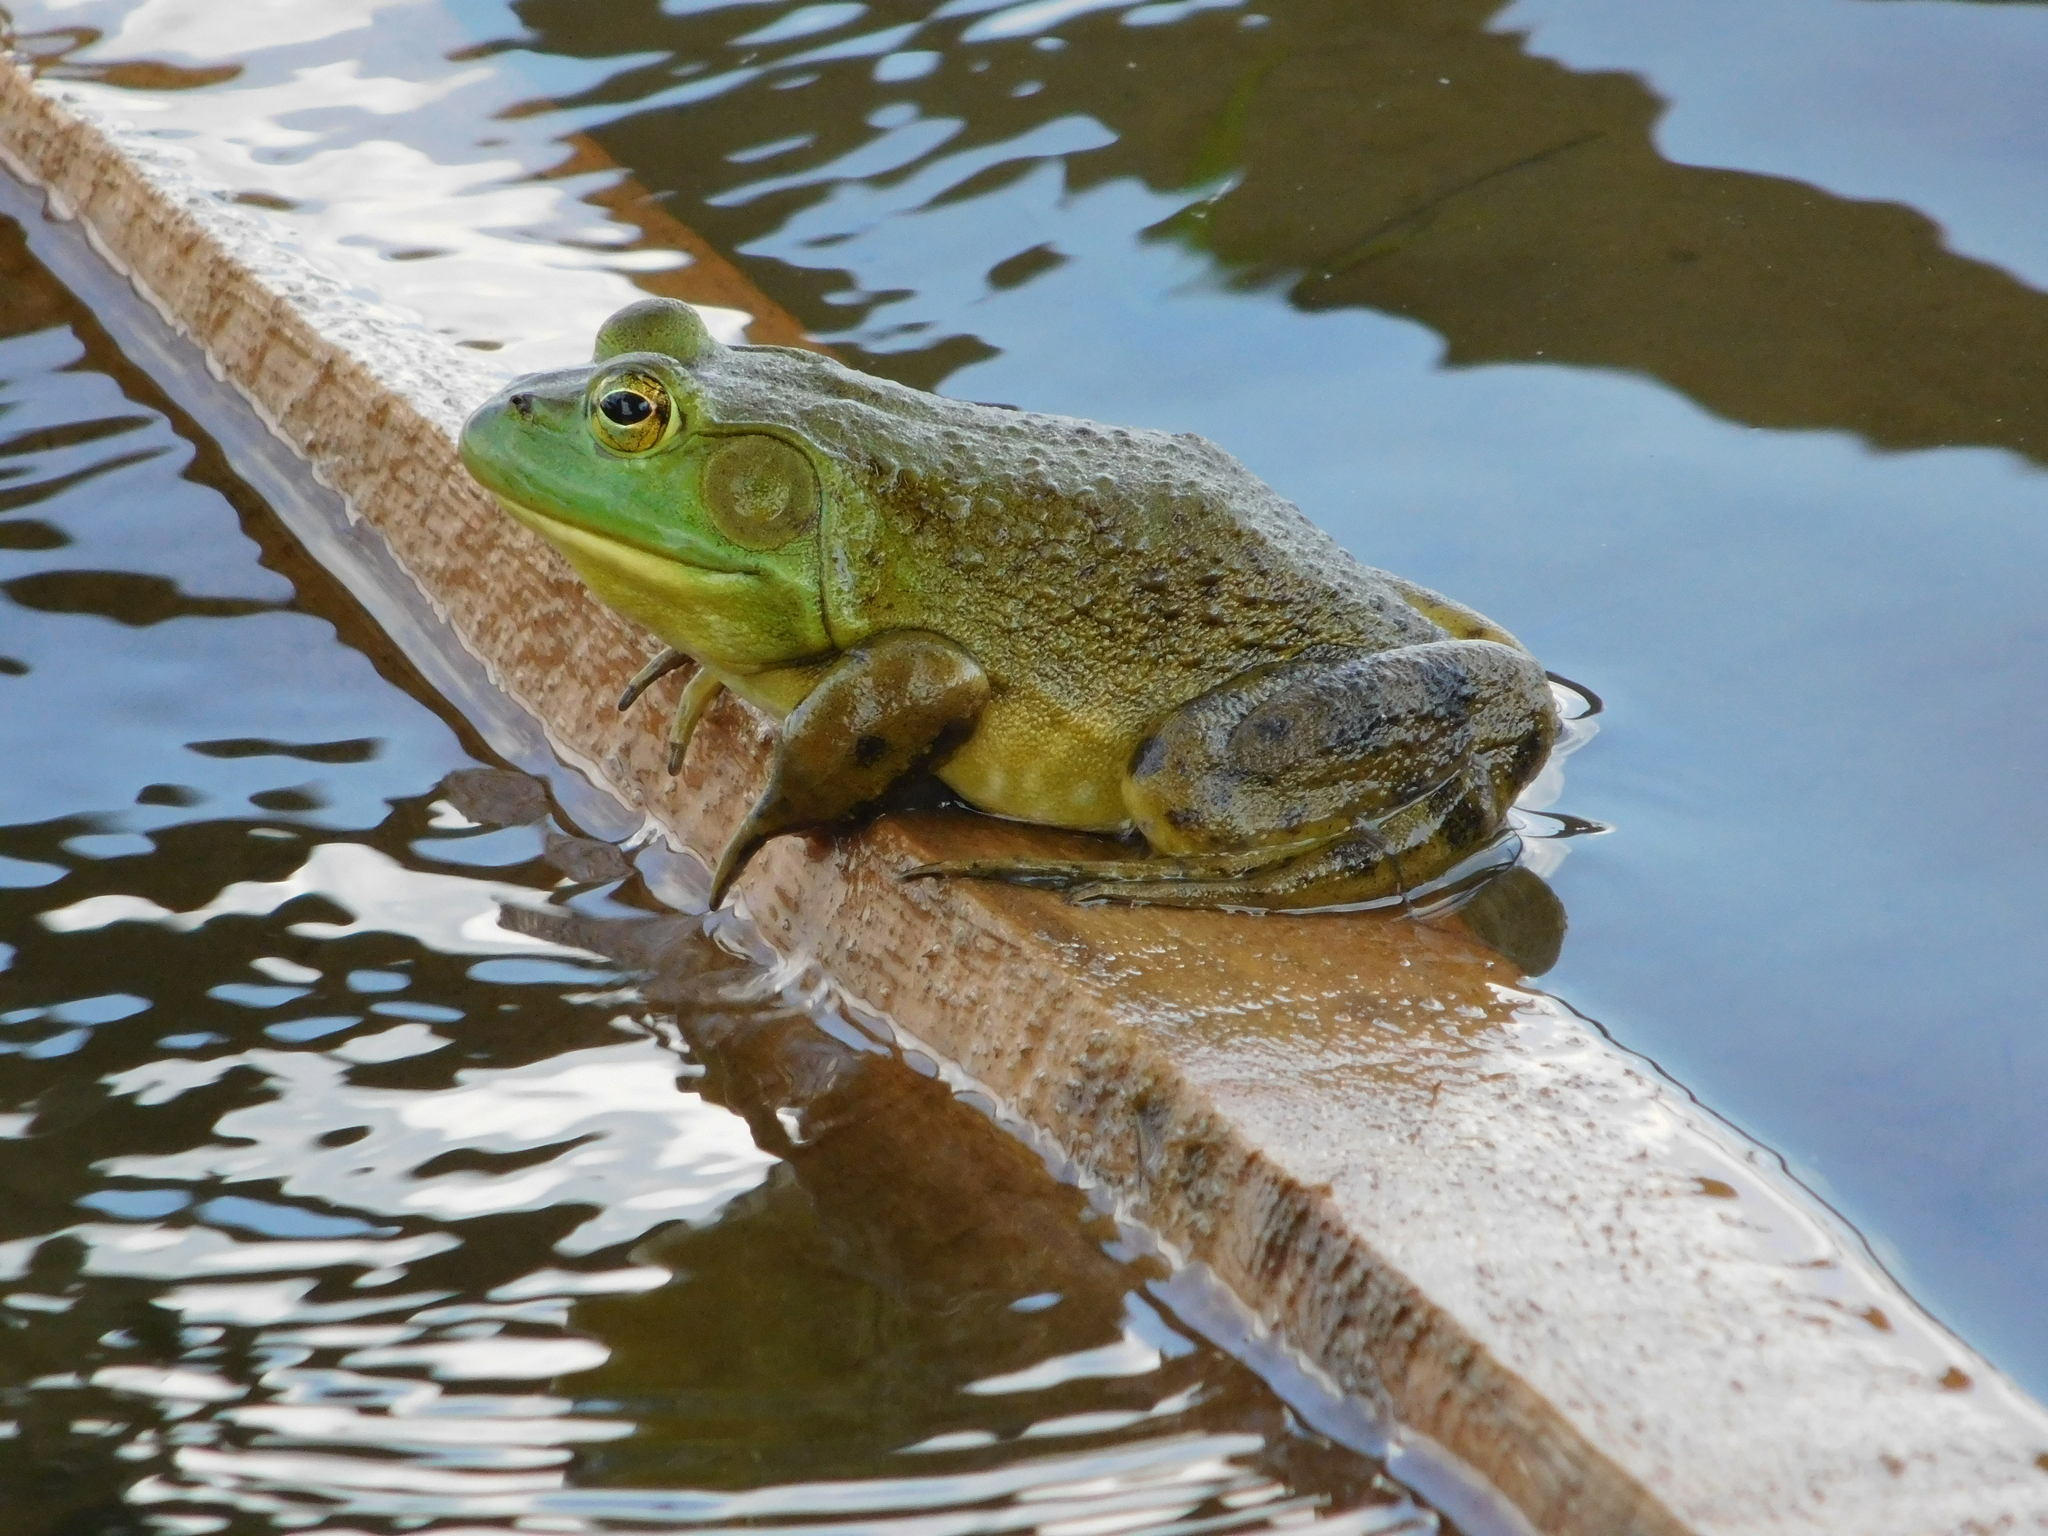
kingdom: Animalia
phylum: Chordata
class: Amphibia
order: Anura
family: Ranidae
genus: Lithobates
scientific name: Lithobates catesbeianus
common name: American bullfrog
